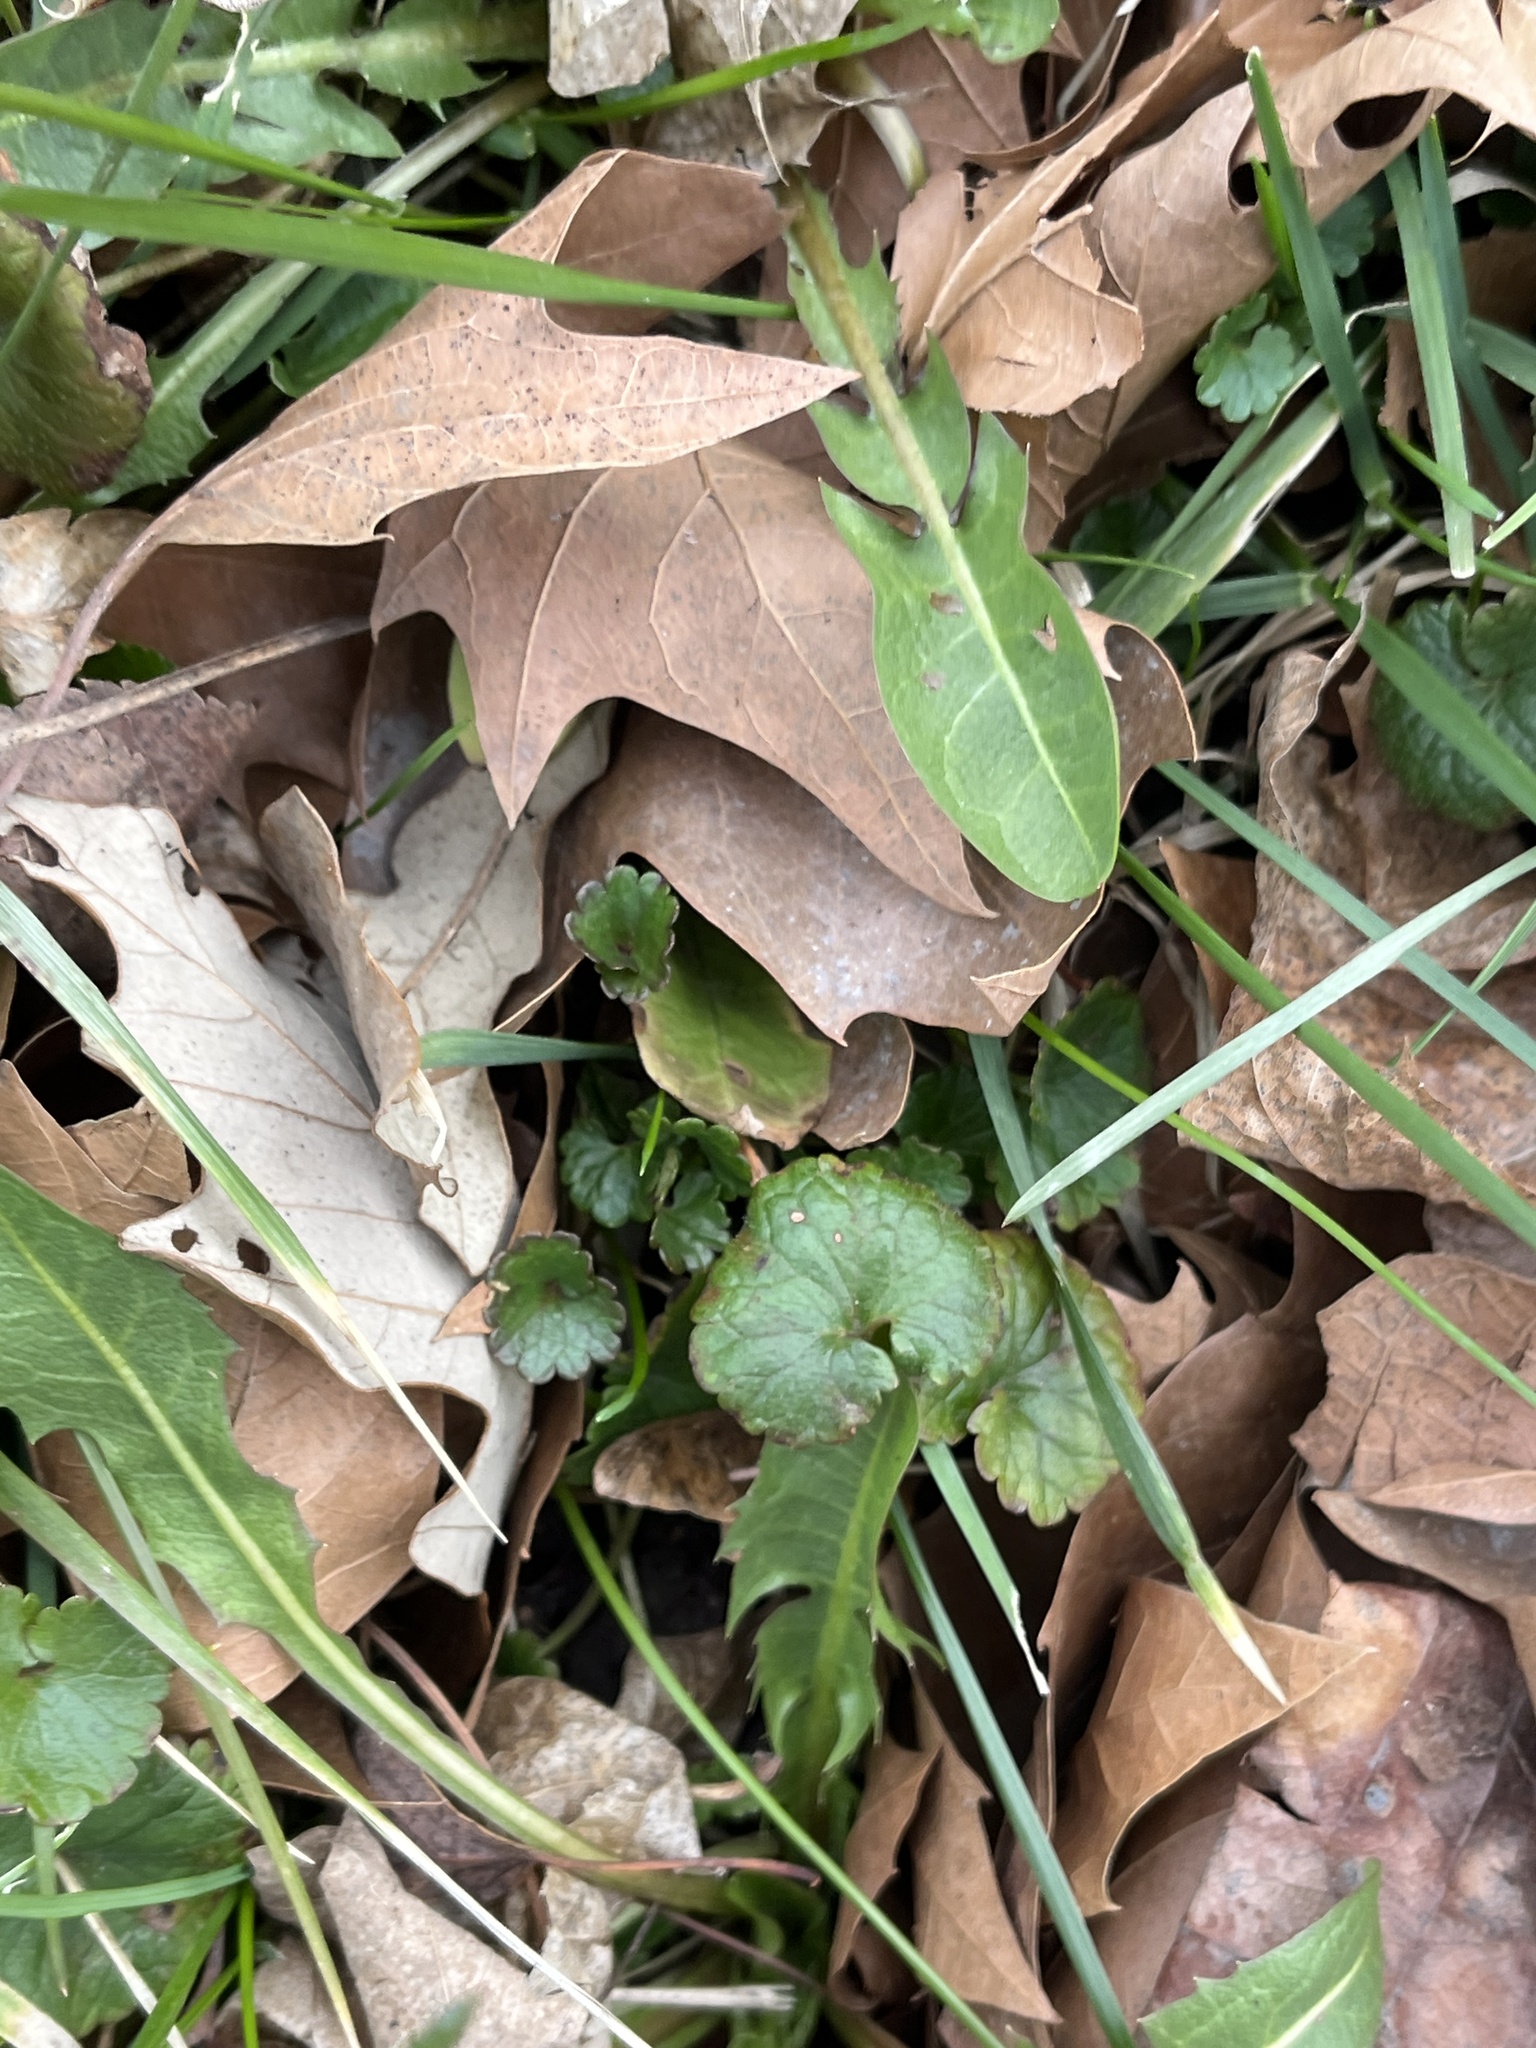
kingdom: Plantae
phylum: Tracheophyta
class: Magnoliopsida
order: Lamiales
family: Lamiaceae
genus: Glechoma
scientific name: Glechoma hederacea
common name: Ground ivy
